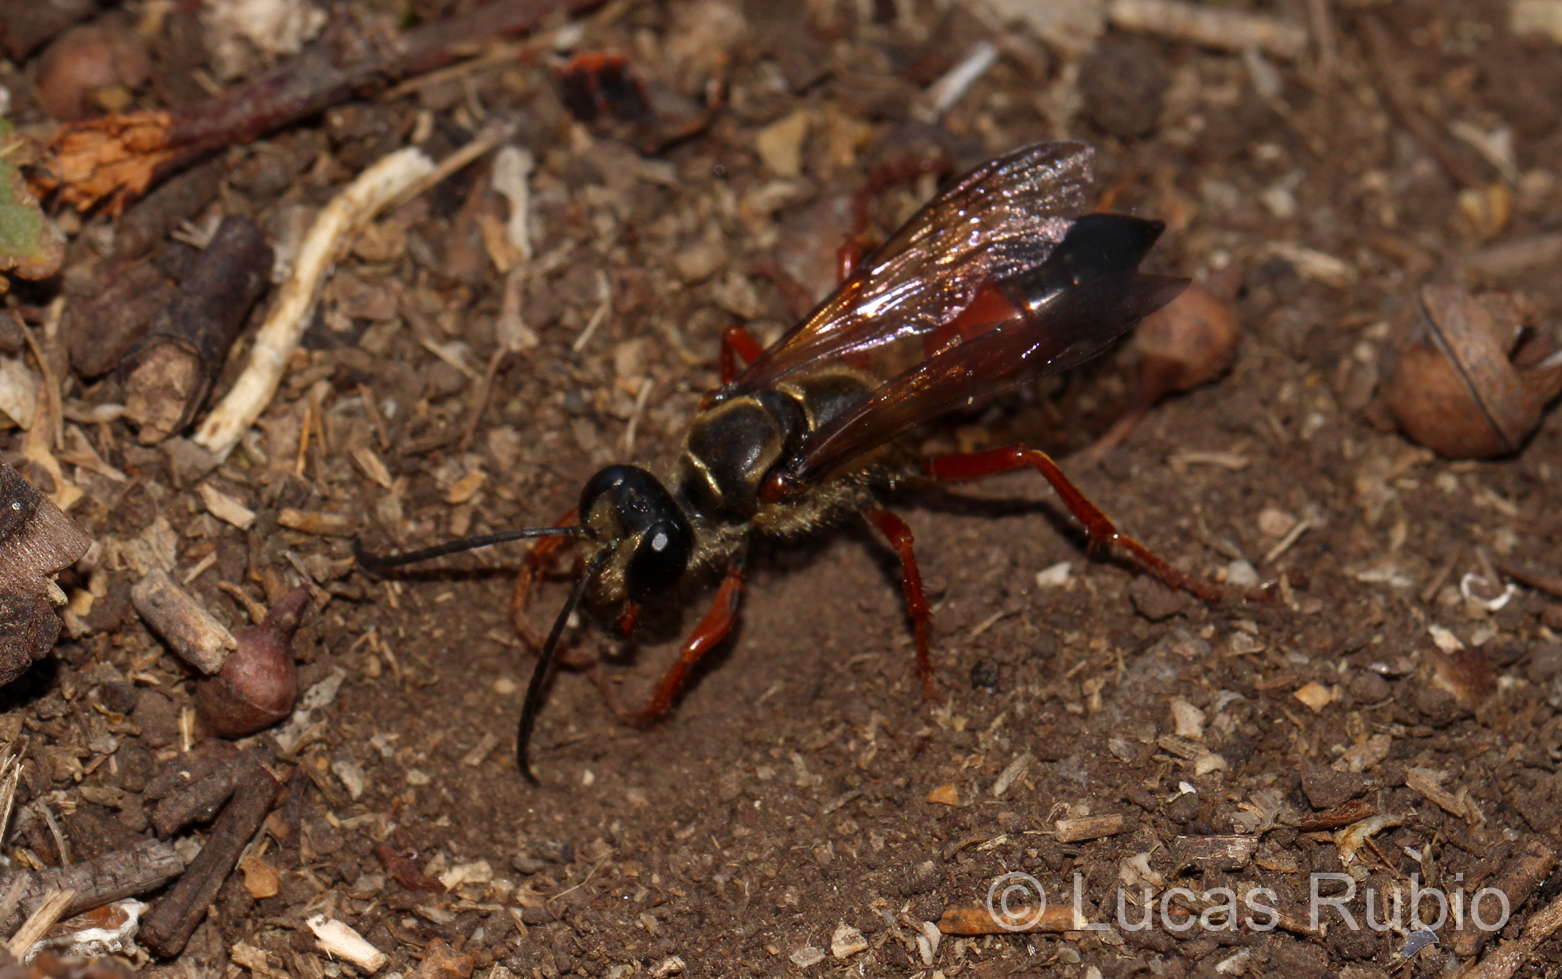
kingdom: Animalia
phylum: Arthropoda
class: Insecta
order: Hymenoptera
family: Sphecidae
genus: Sphex
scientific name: Sphex ichneumoneus
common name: Great golden digger wasp
